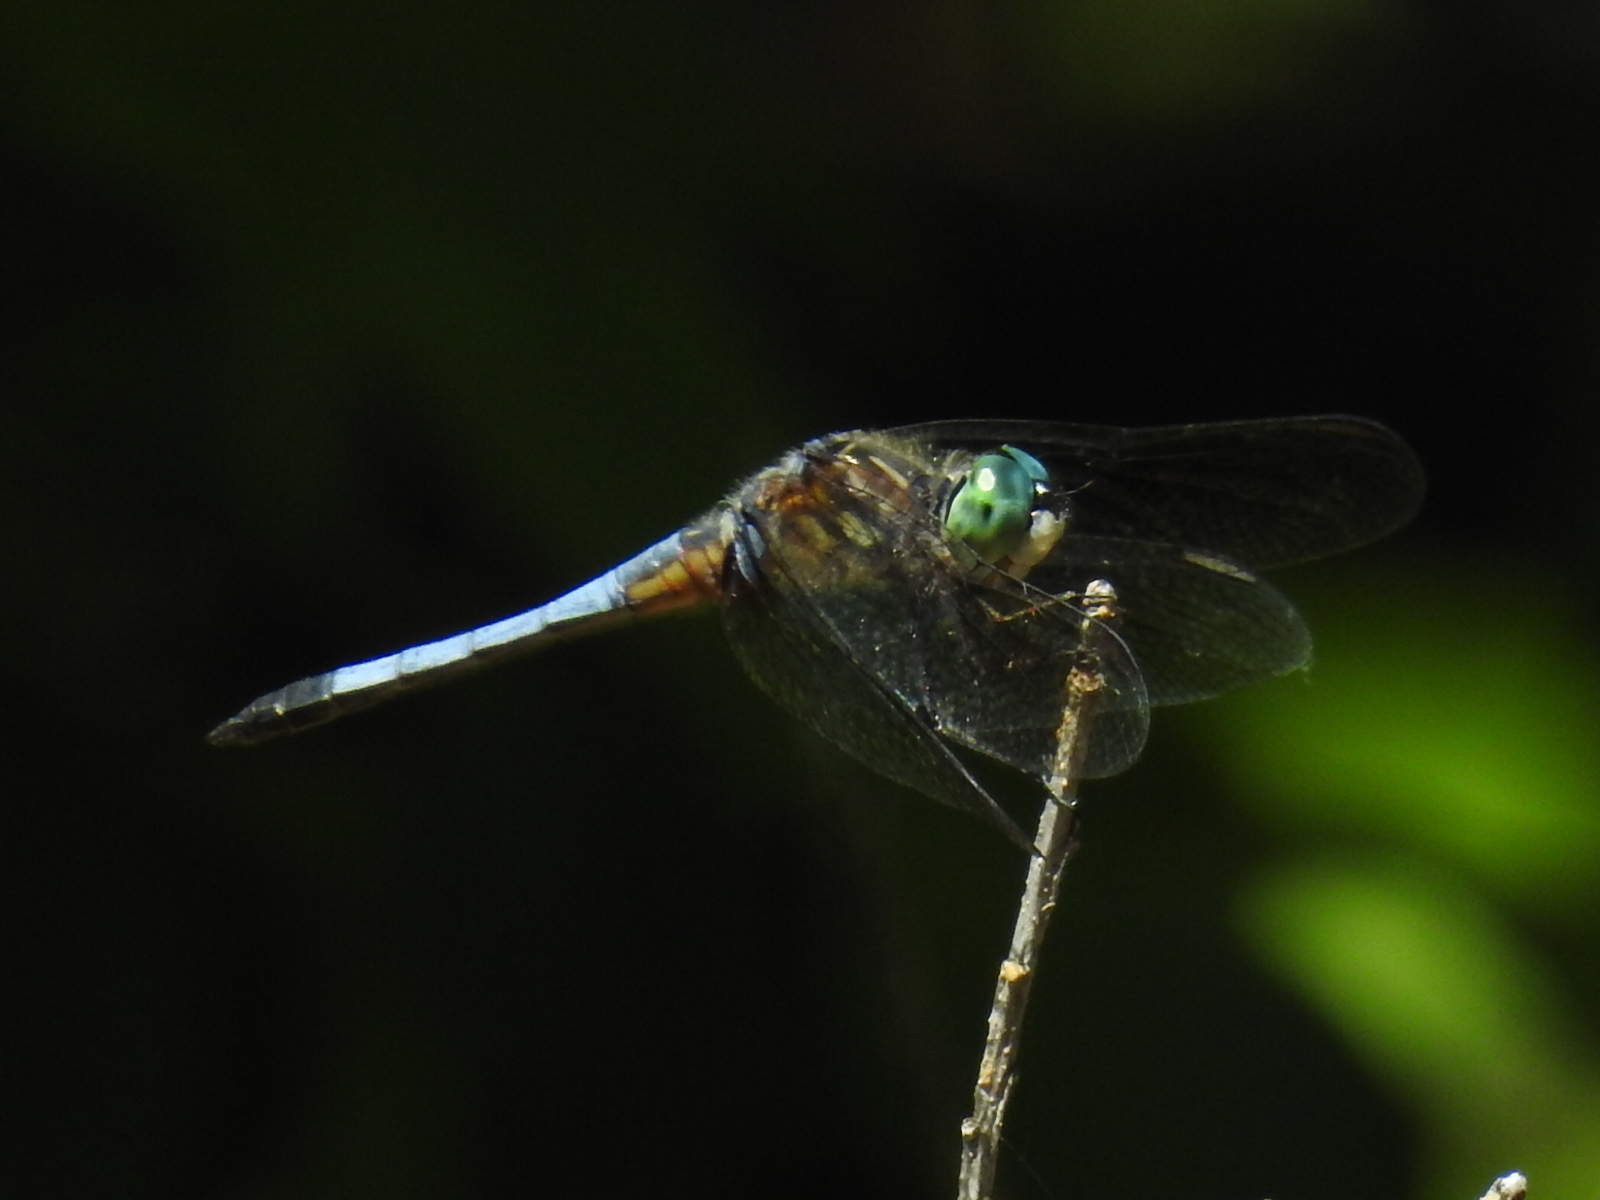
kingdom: Animalia
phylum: Arthropoda
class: Insecta
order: Odonata
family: Libellulidae
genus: Pachydiplax
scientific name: Pachydiplax longipennis
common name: Blue dasher
